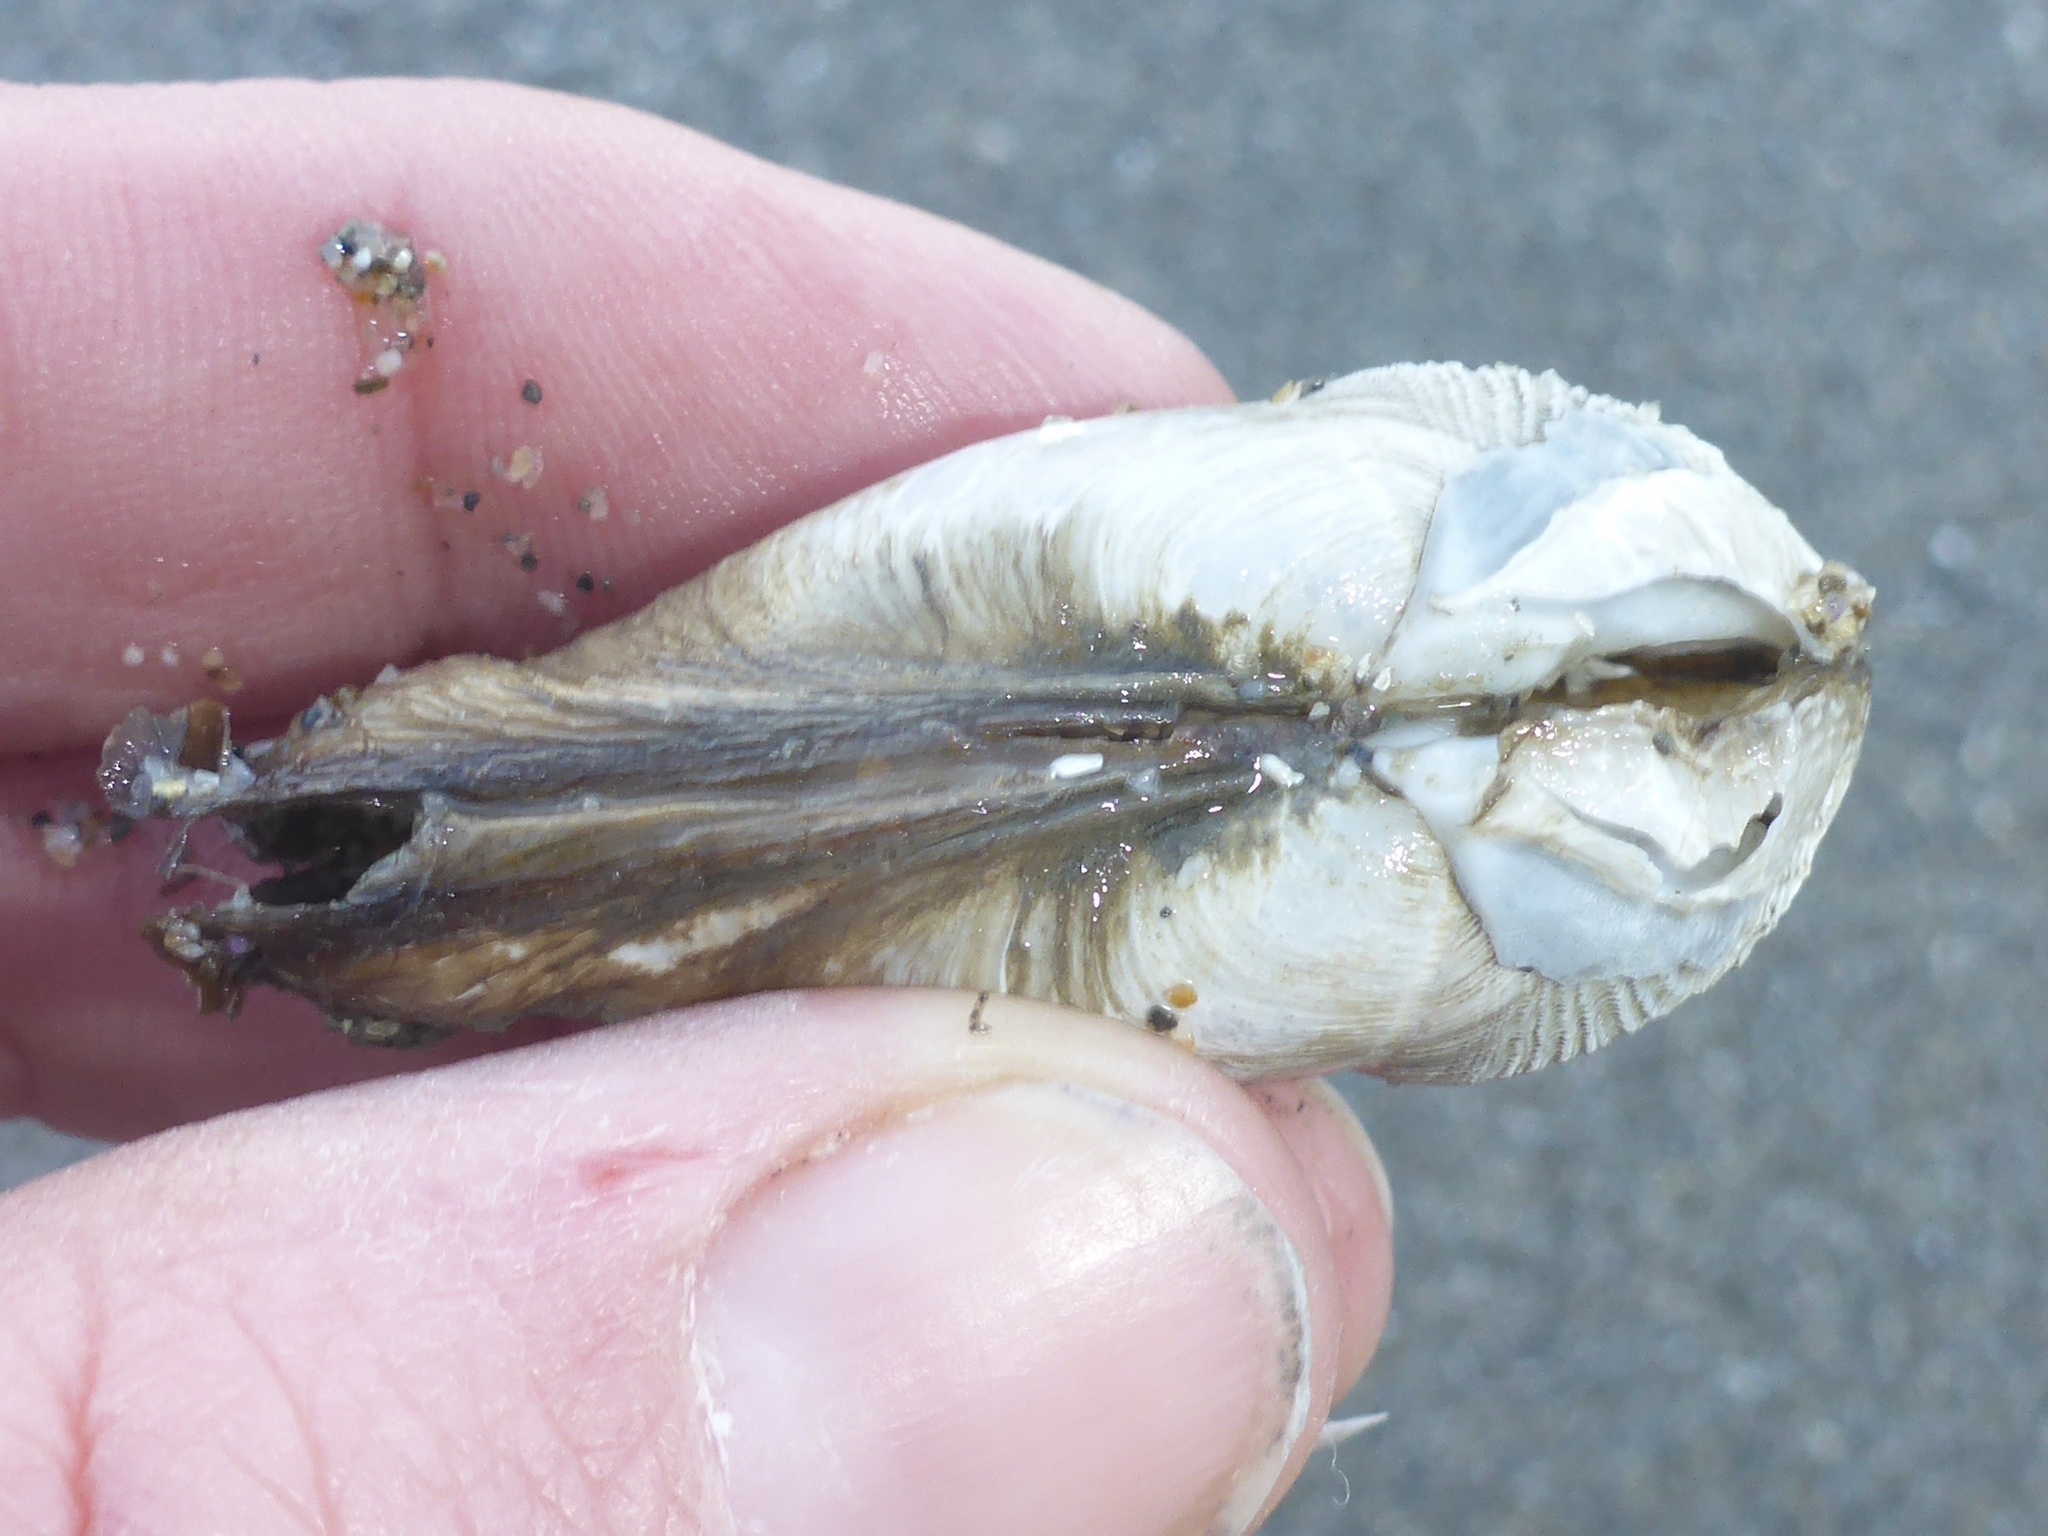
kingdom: Animalia
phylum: Mollusca
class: Bivalvia
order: Myida
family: Pholadidae
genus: Penitella
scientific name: Penitella penita
